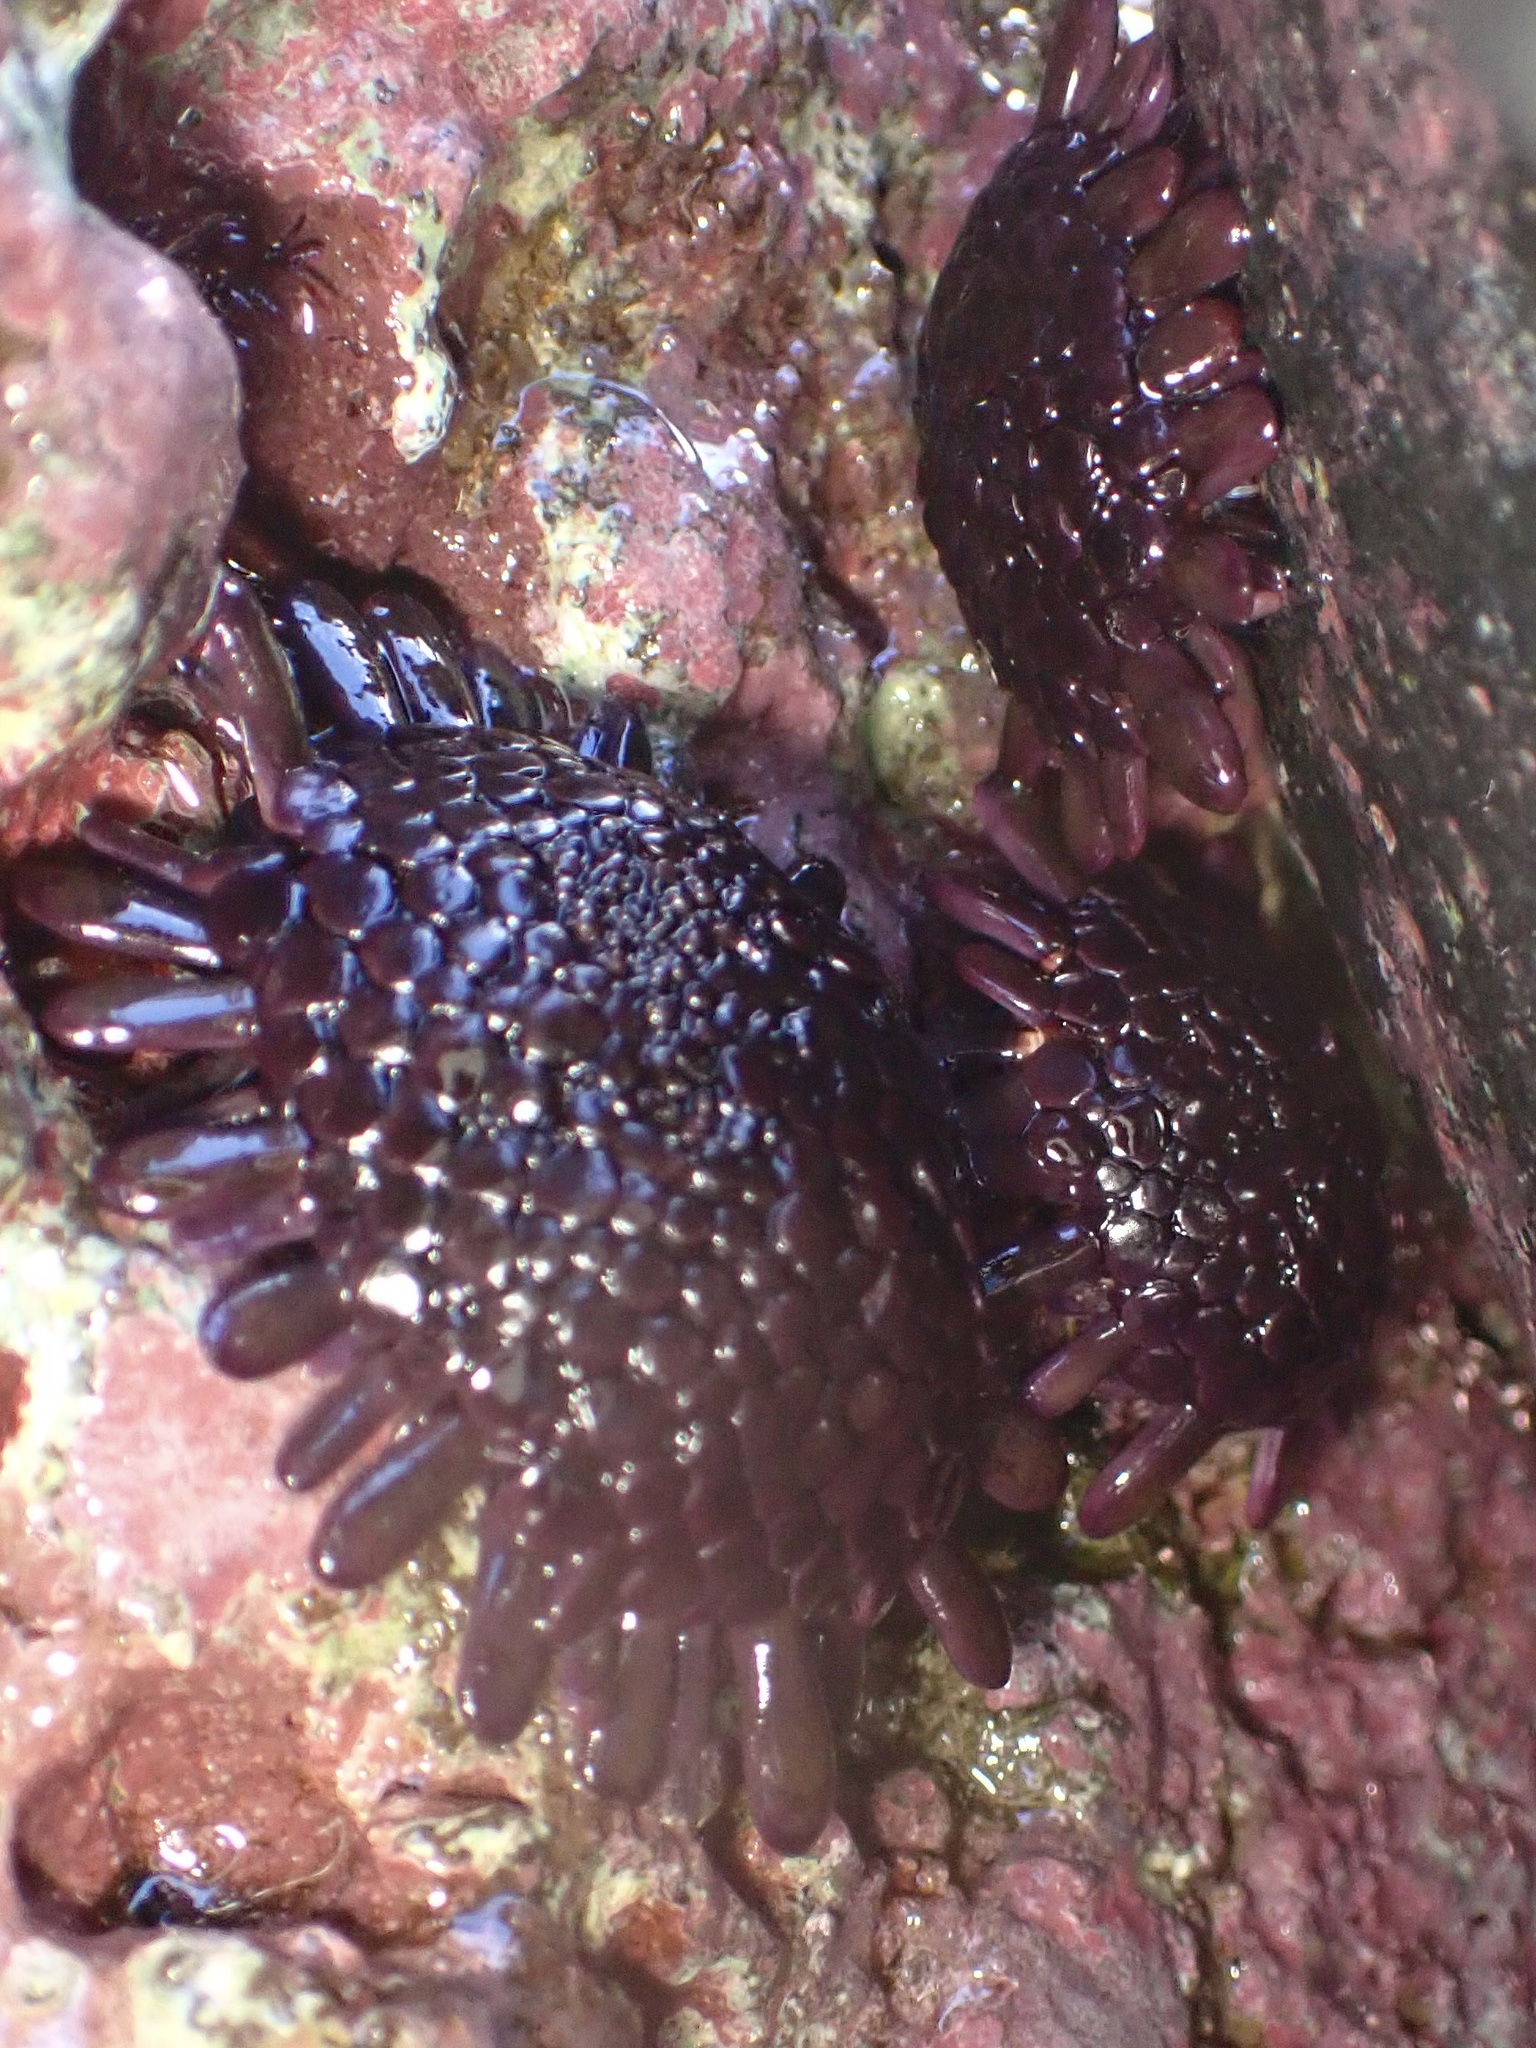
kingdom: Animalia
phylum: Echinodermata
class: Echinoidea
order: Camarodonta
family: Echinometridae
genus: Colobocentrotus
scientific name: Colobocentrotus atratus
